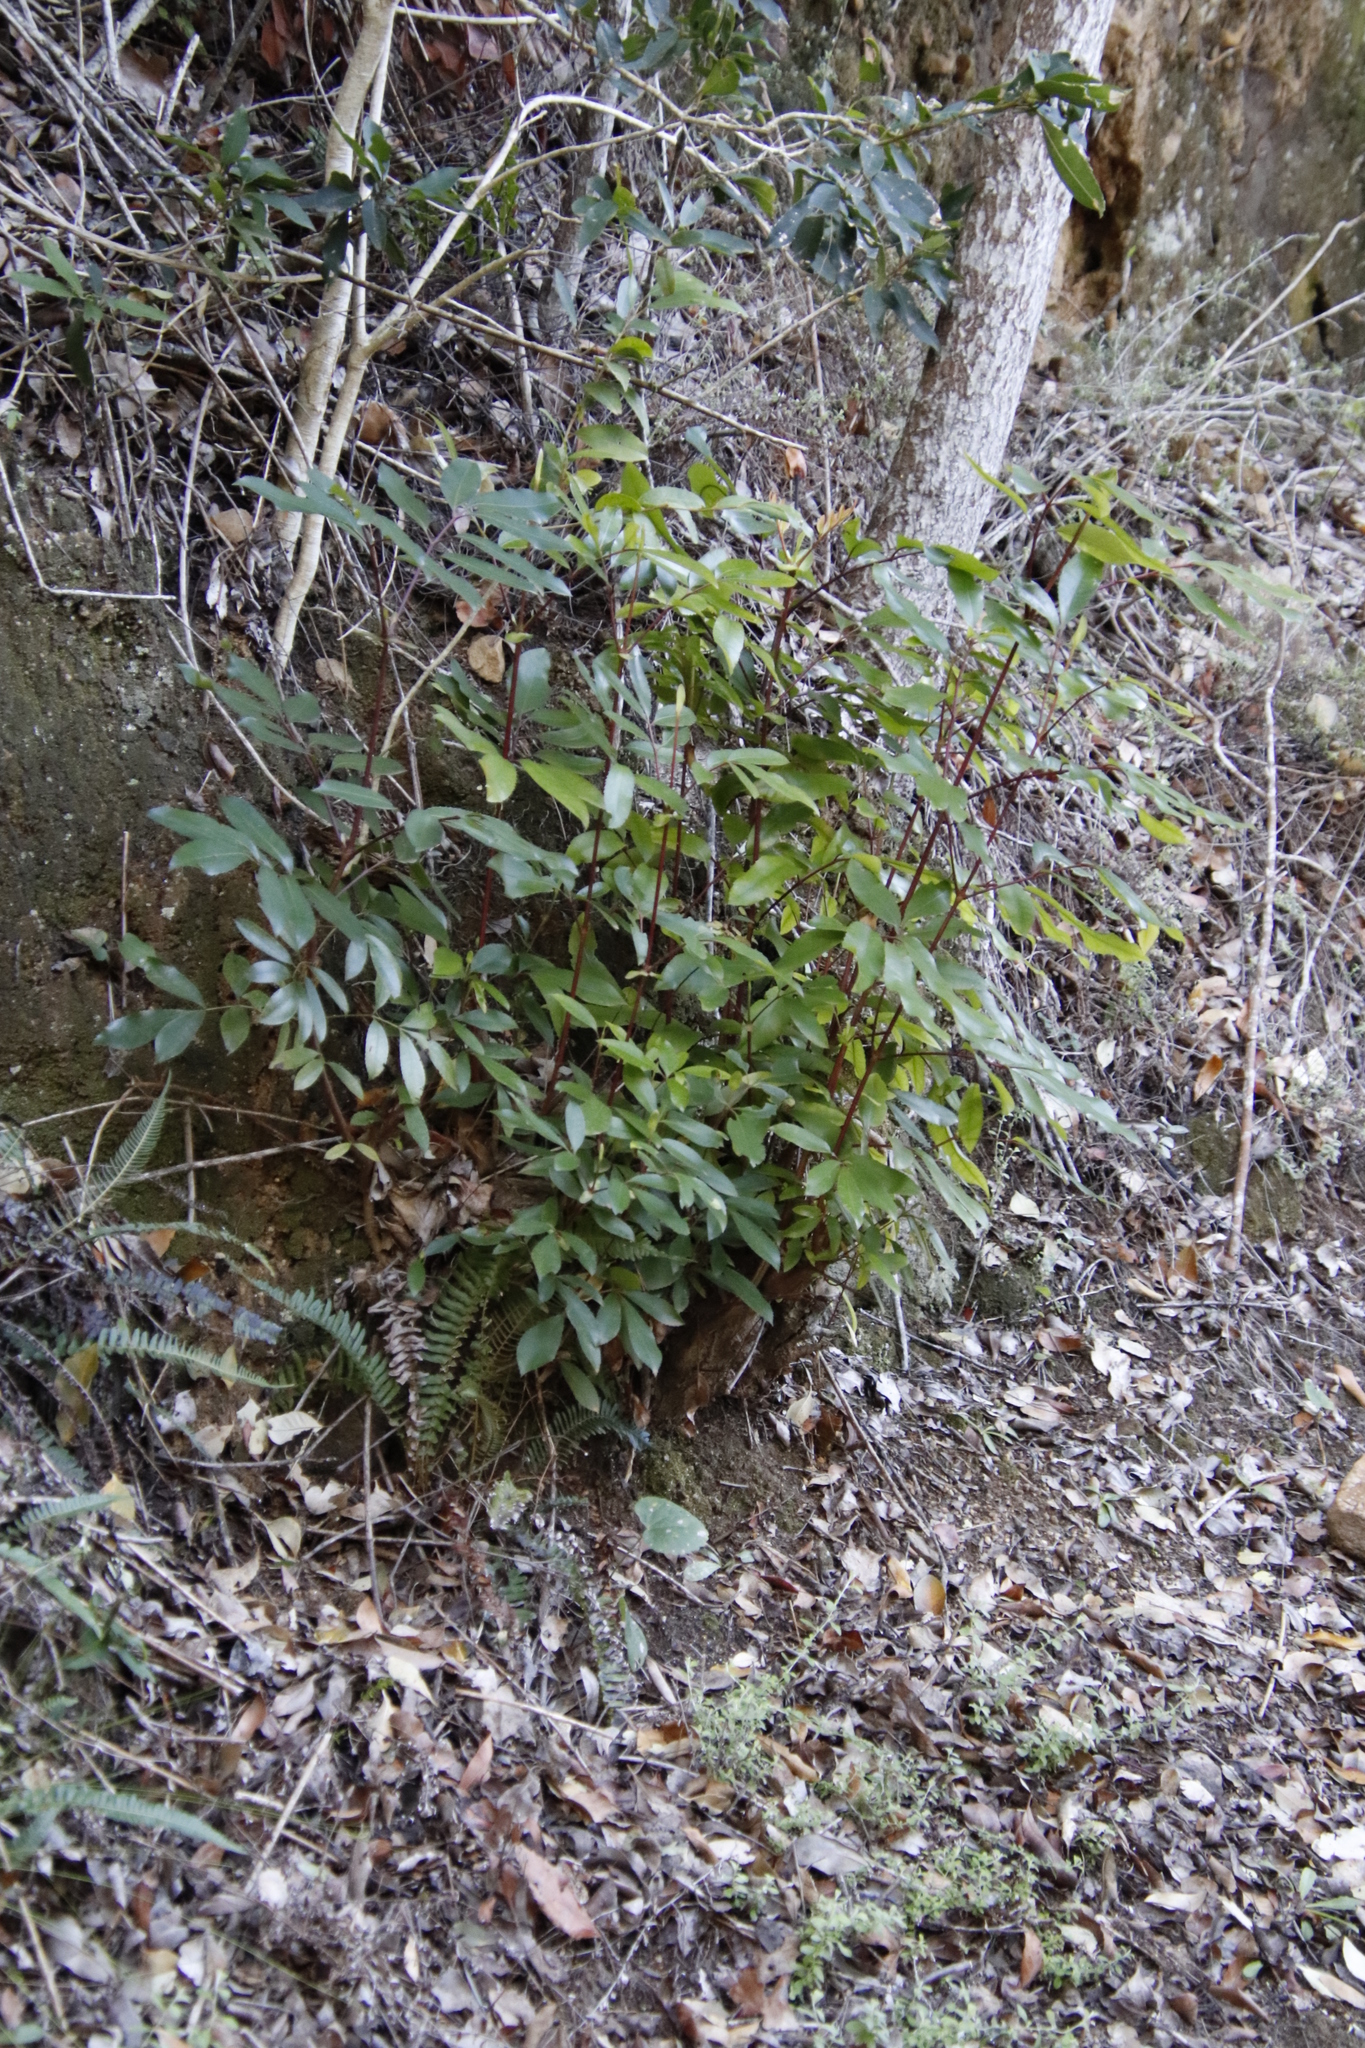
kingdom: Plantae
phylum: Tracheophyta
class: Magnoliopsida
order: Oxalidales
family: Cunoniaceae
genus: Cunonia
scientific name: Cunonia capensis
